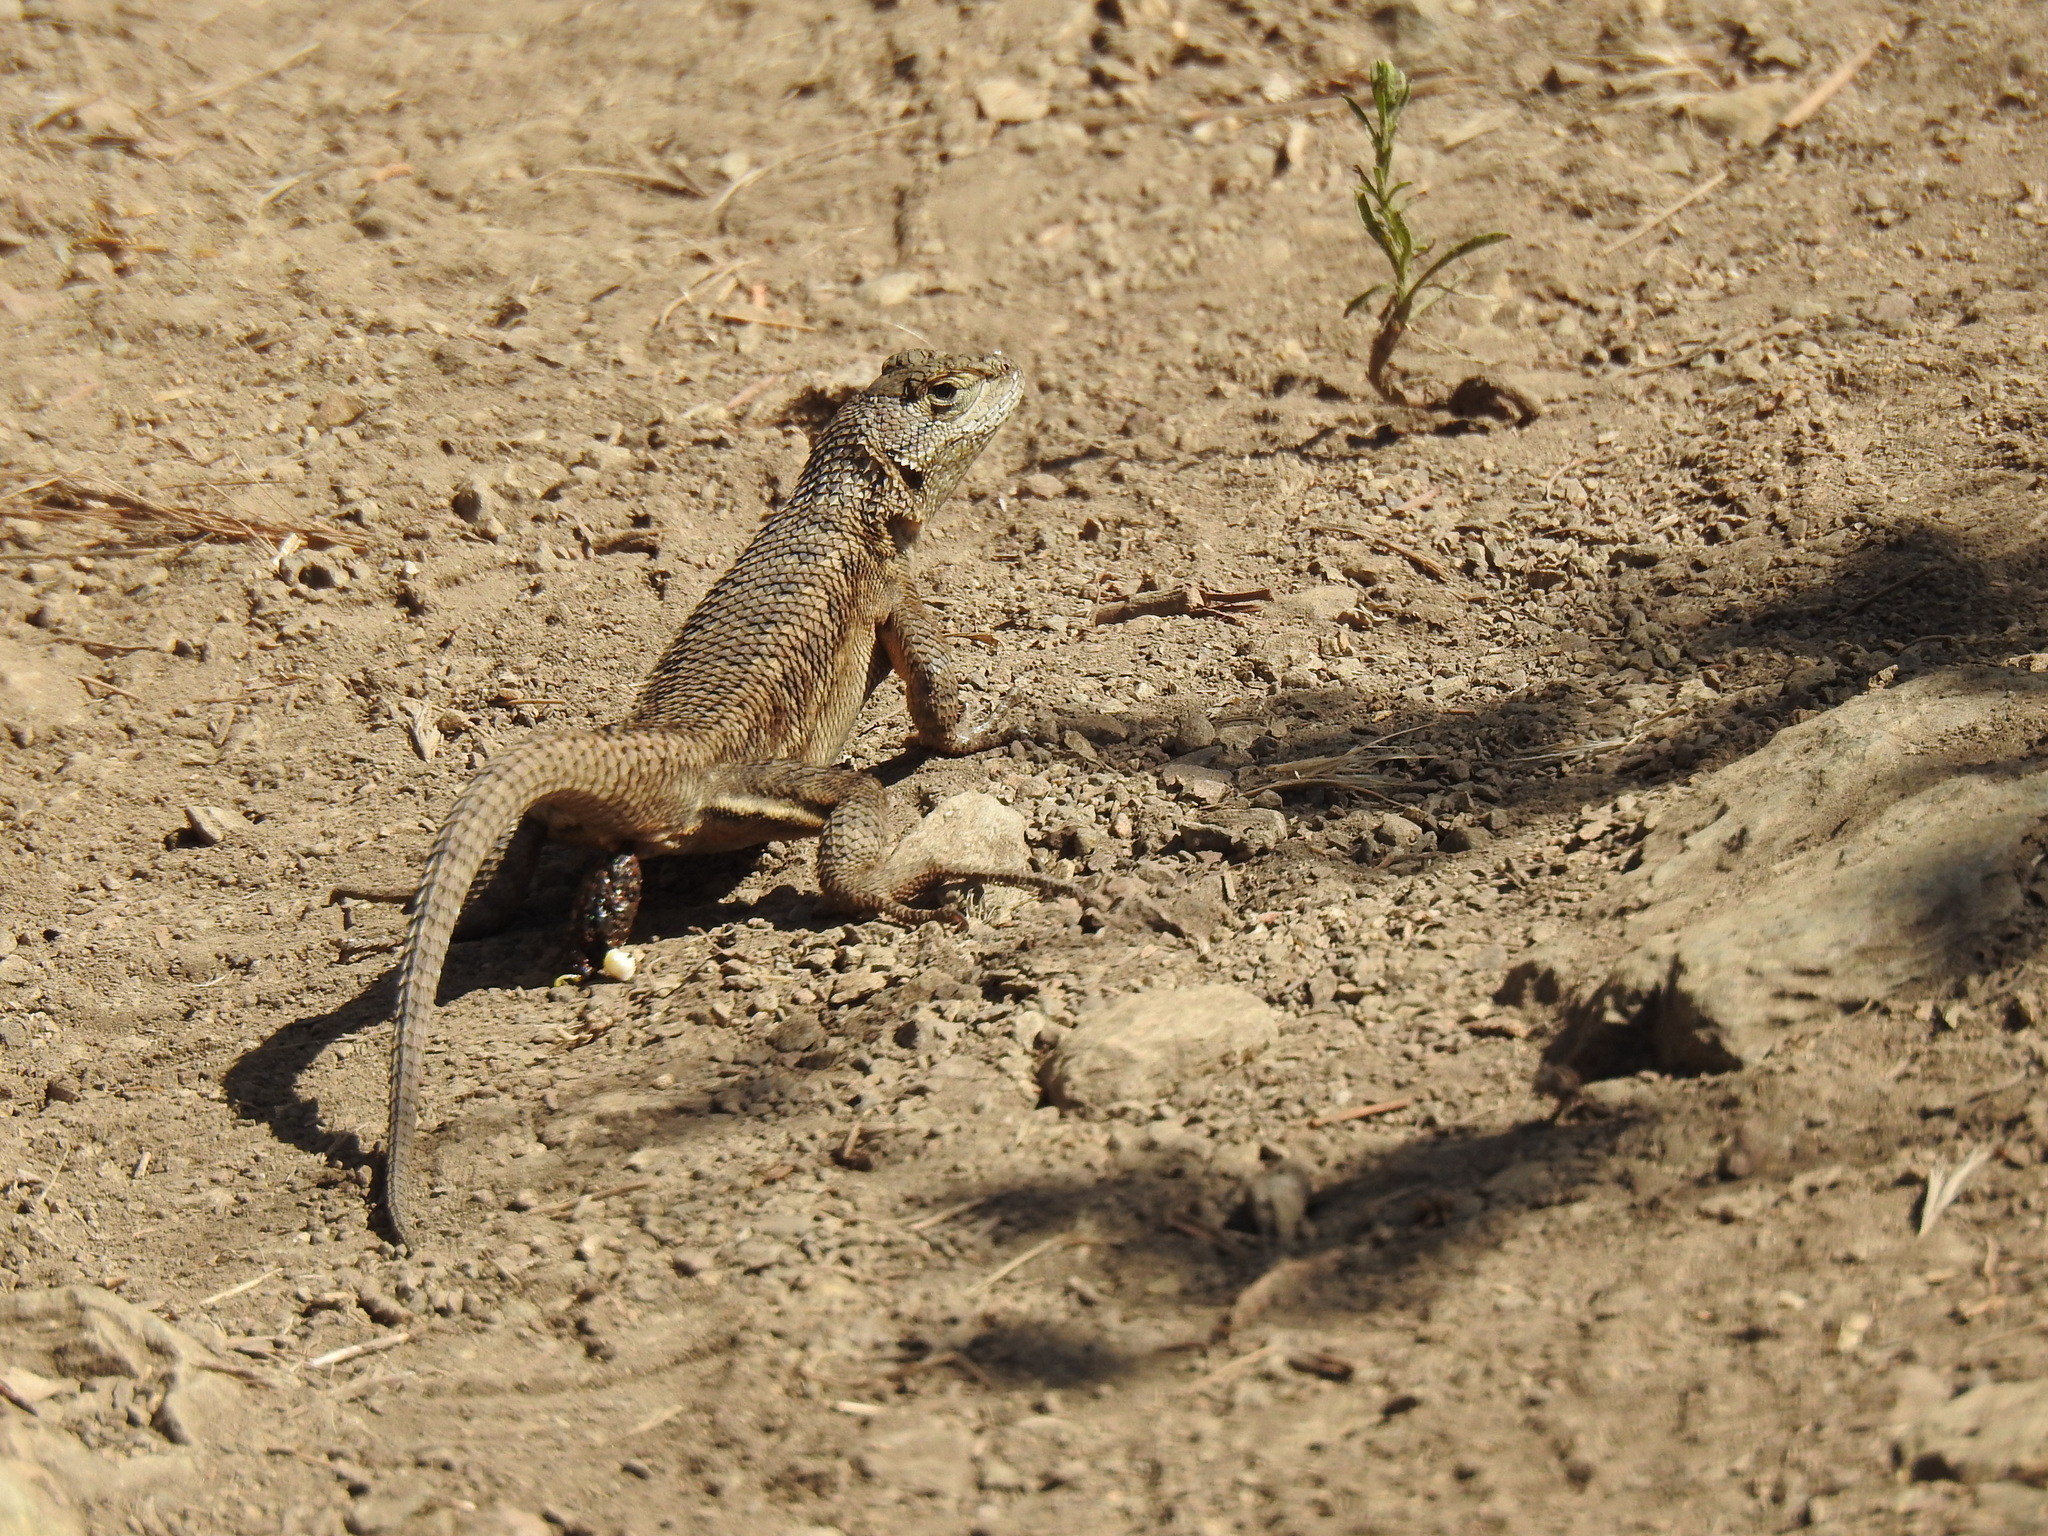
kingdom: Animalia
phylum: Chordata
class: Squamata
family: Phrynosomatidae
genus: Sceloporus
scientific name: Sceloporus occidentalis
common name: Western fence lizard
